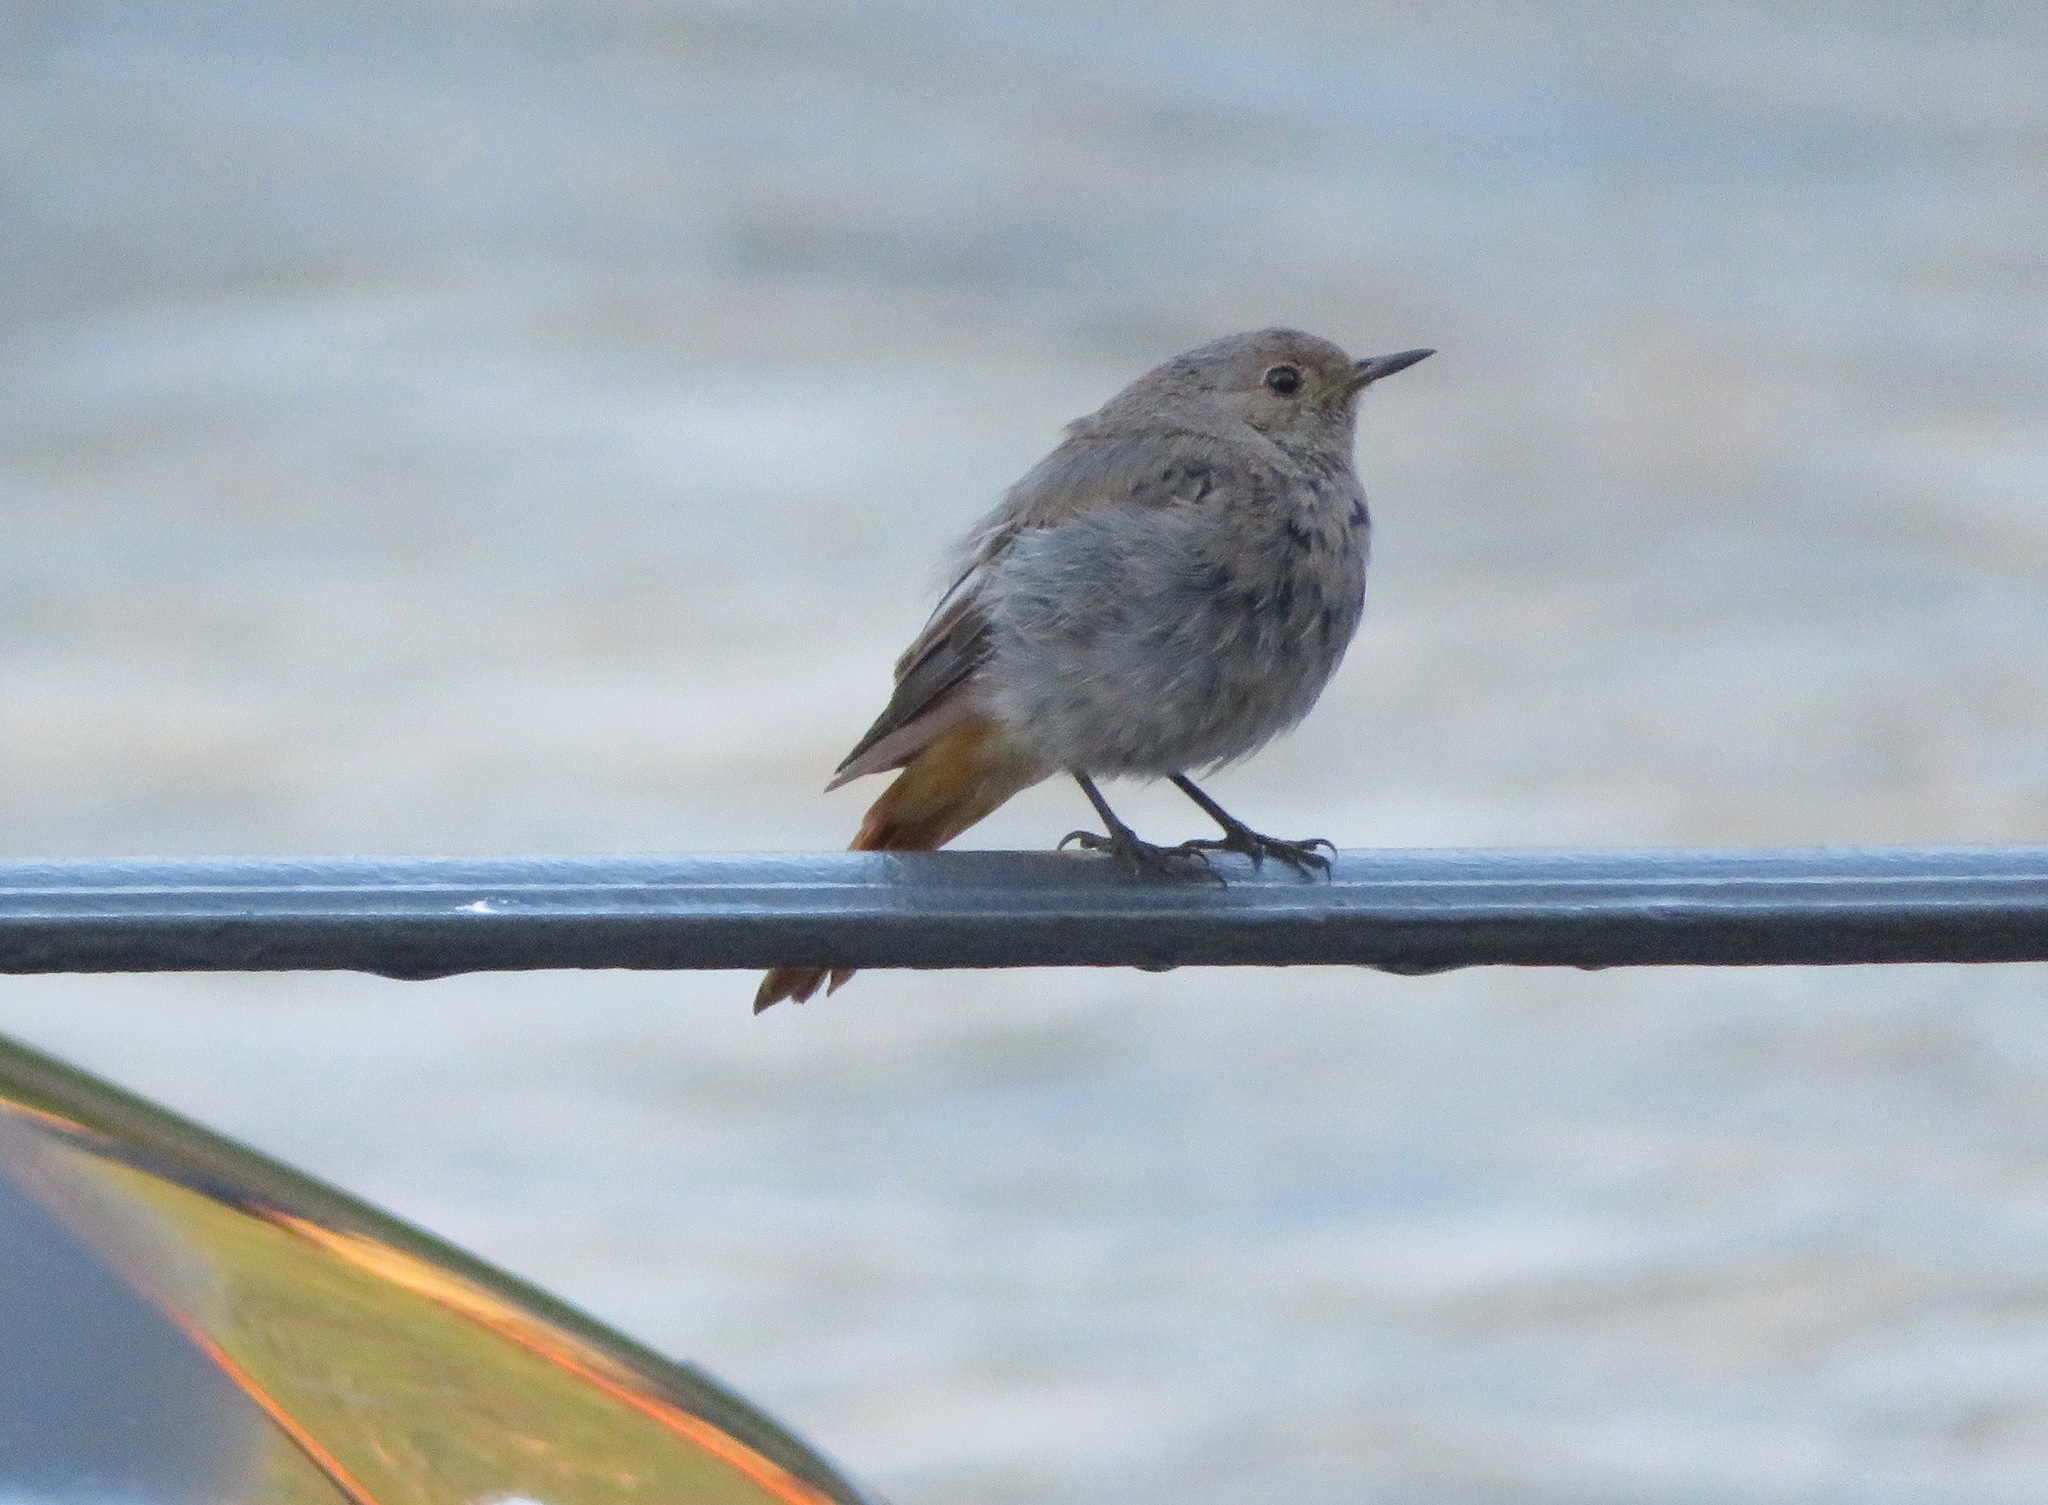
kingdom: Animalia
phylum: Chordata
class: Aves
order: Passeriformes
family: Muscicapidae
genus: Phoenicurus
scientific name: Phoenicurus ochruros
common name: Black redstart
